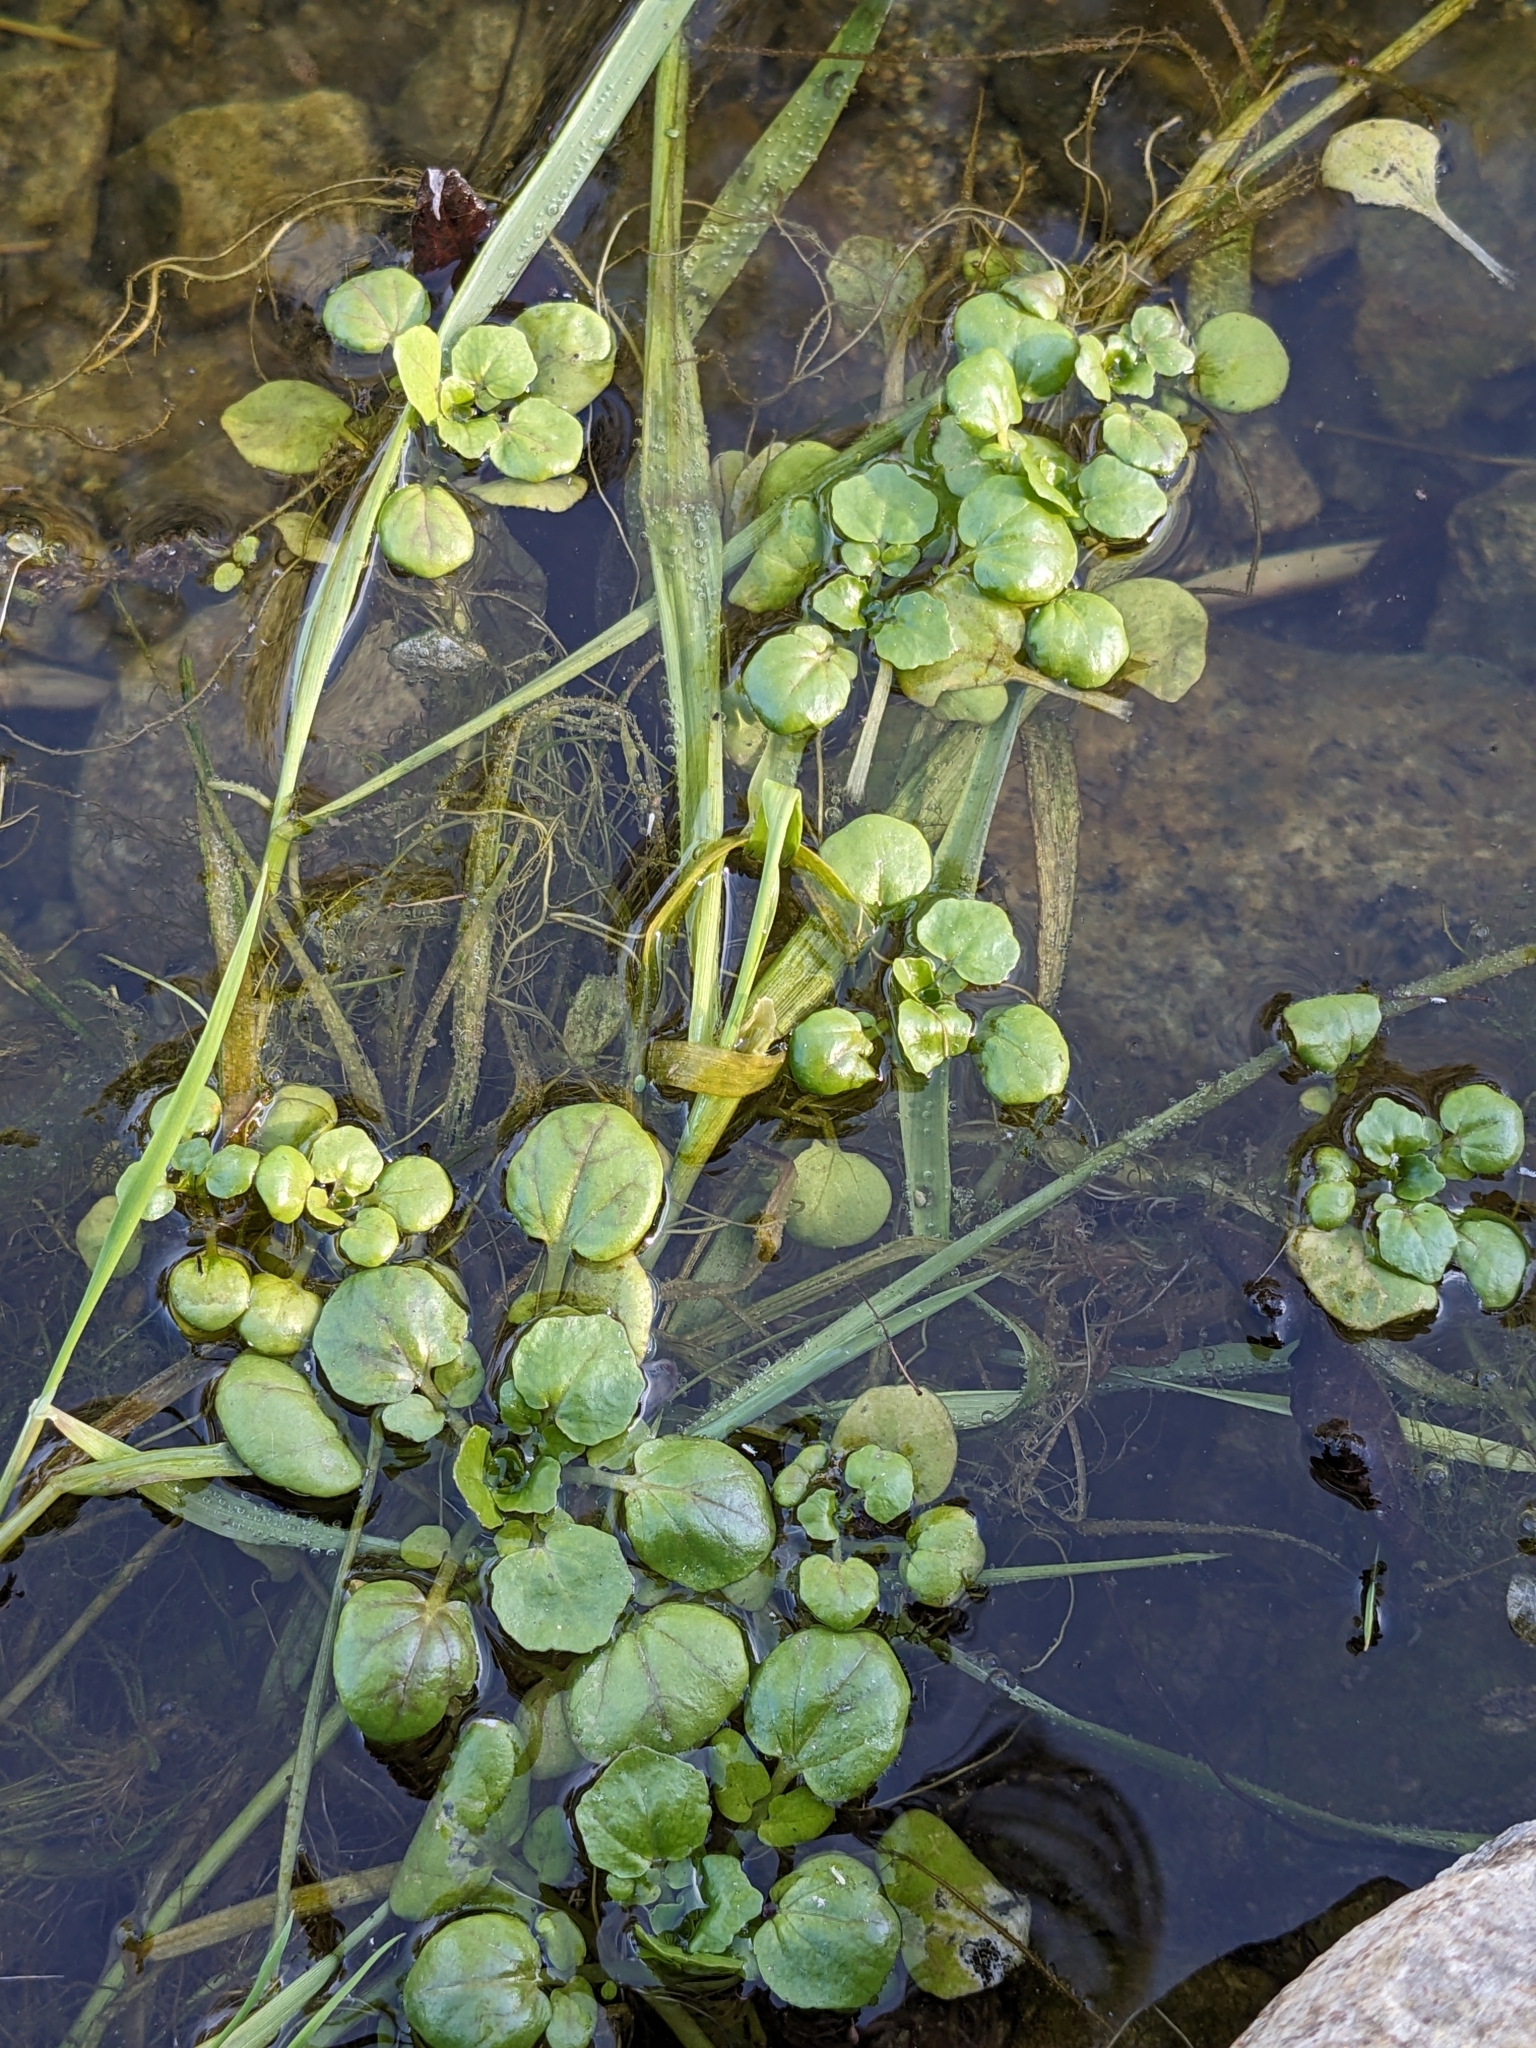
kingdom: Plantae
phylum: Tracheophyta
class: Magnoliopsida
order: Brassicales
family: Brassicaceae
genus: Nasturtium
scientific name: Nasturtium officinale
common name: Watercress
